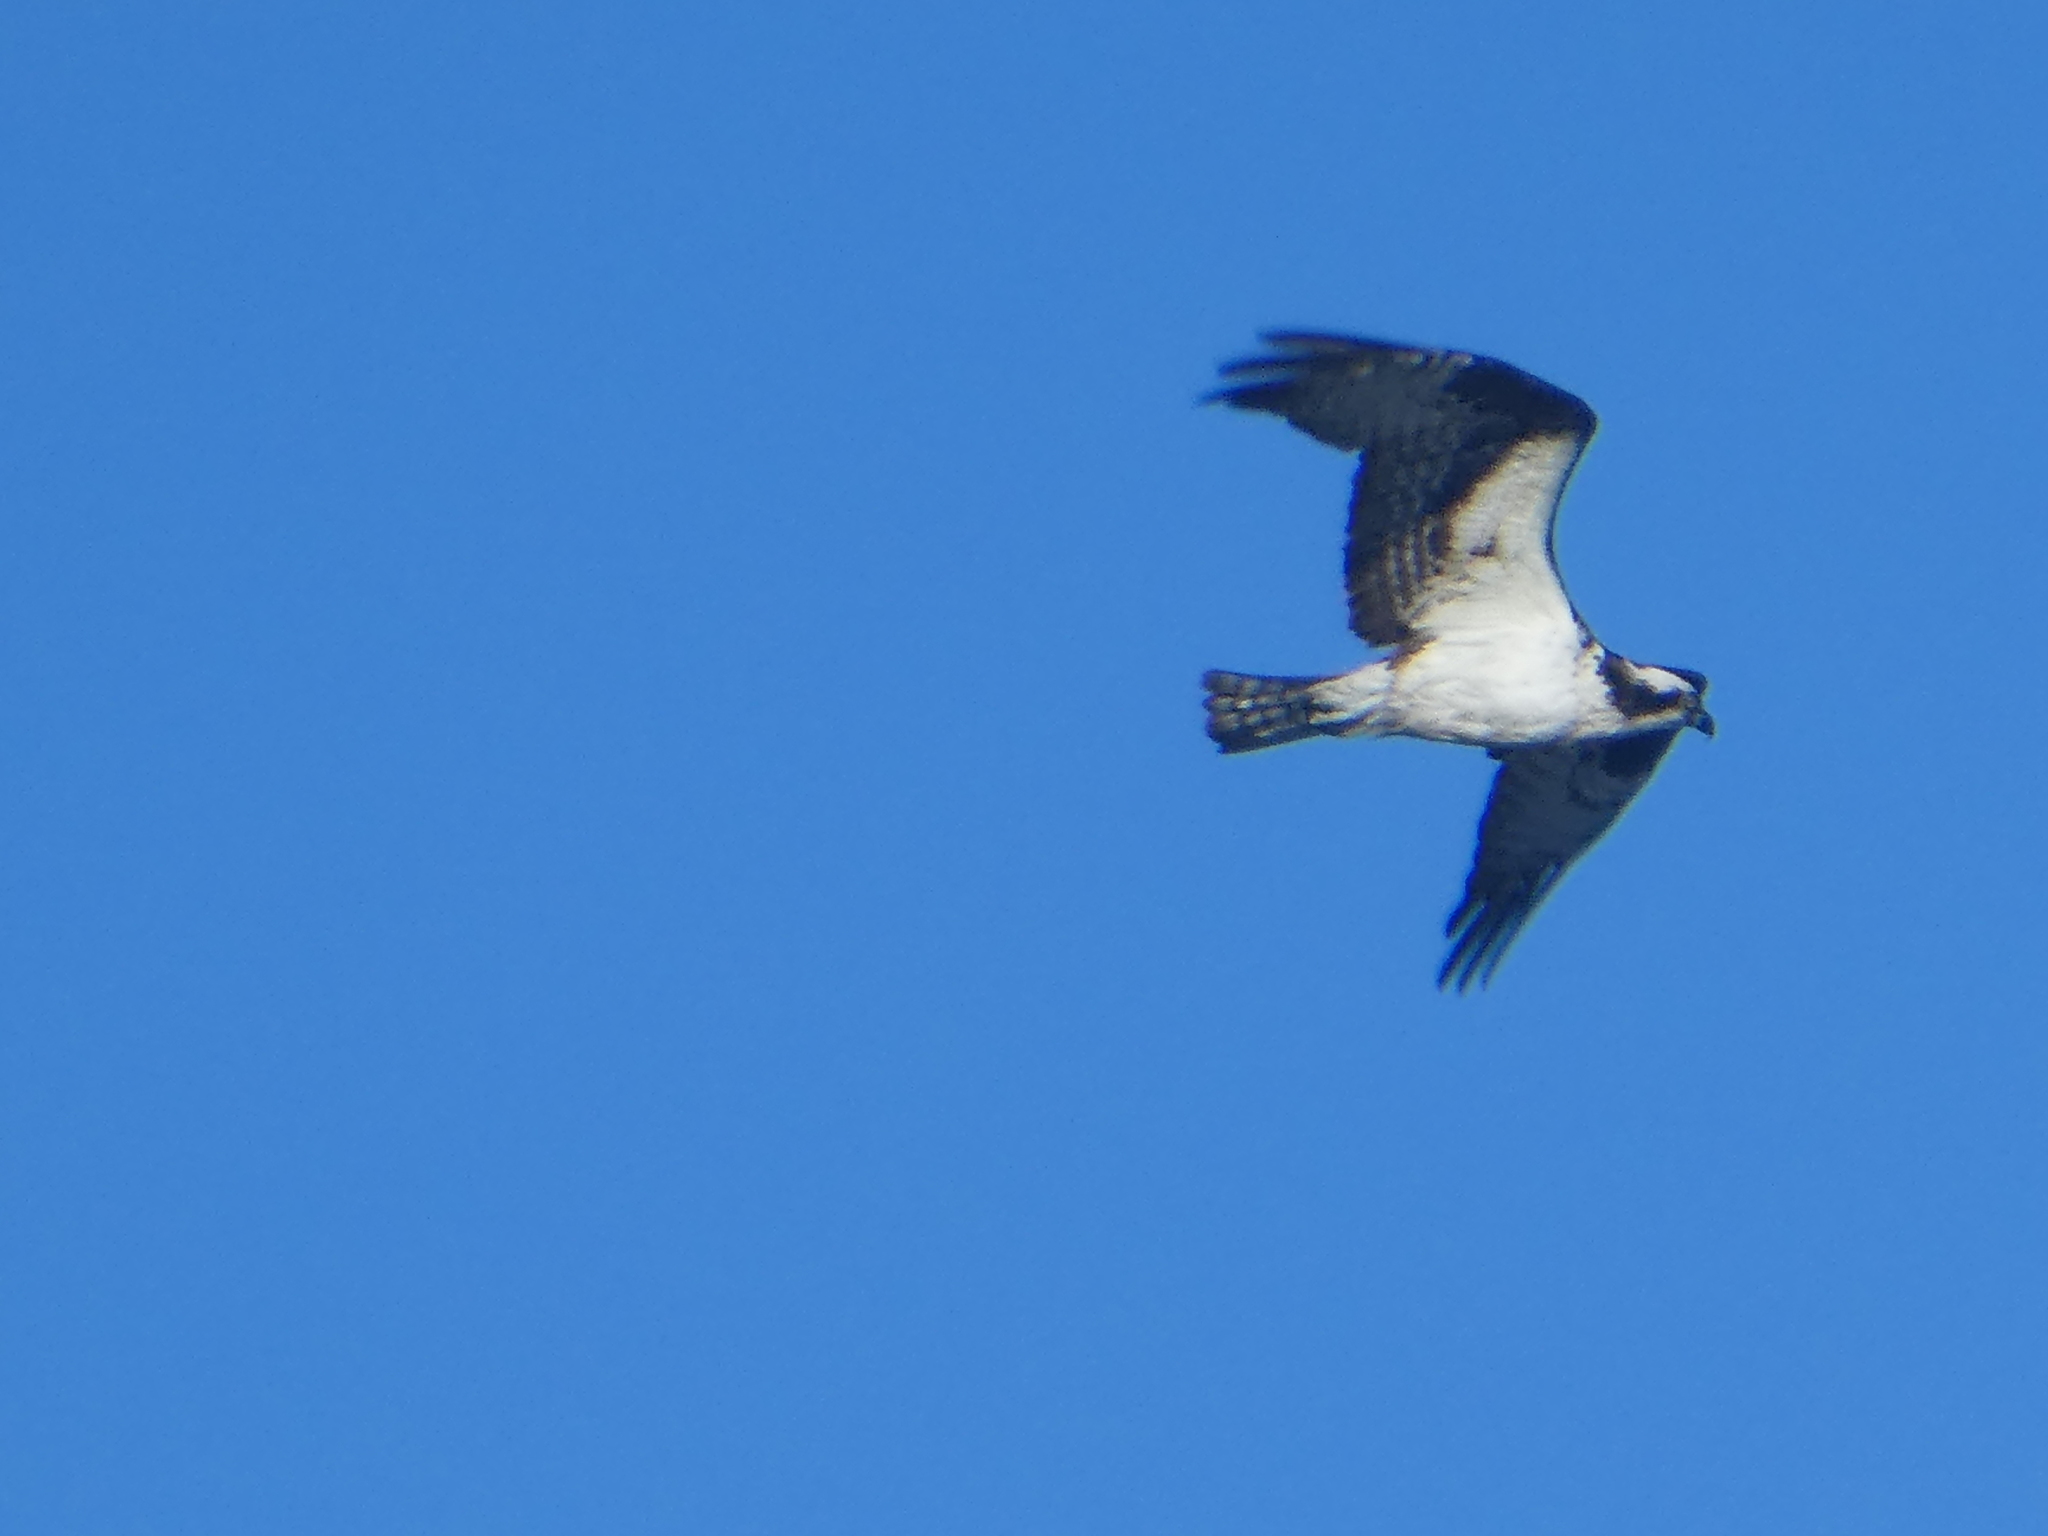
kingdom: Animalia
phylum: Chordata
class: Aves
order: Accipitriformes
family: Pandionidae
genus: Pandion
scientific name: Pandion haliaetus
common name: Osprey
